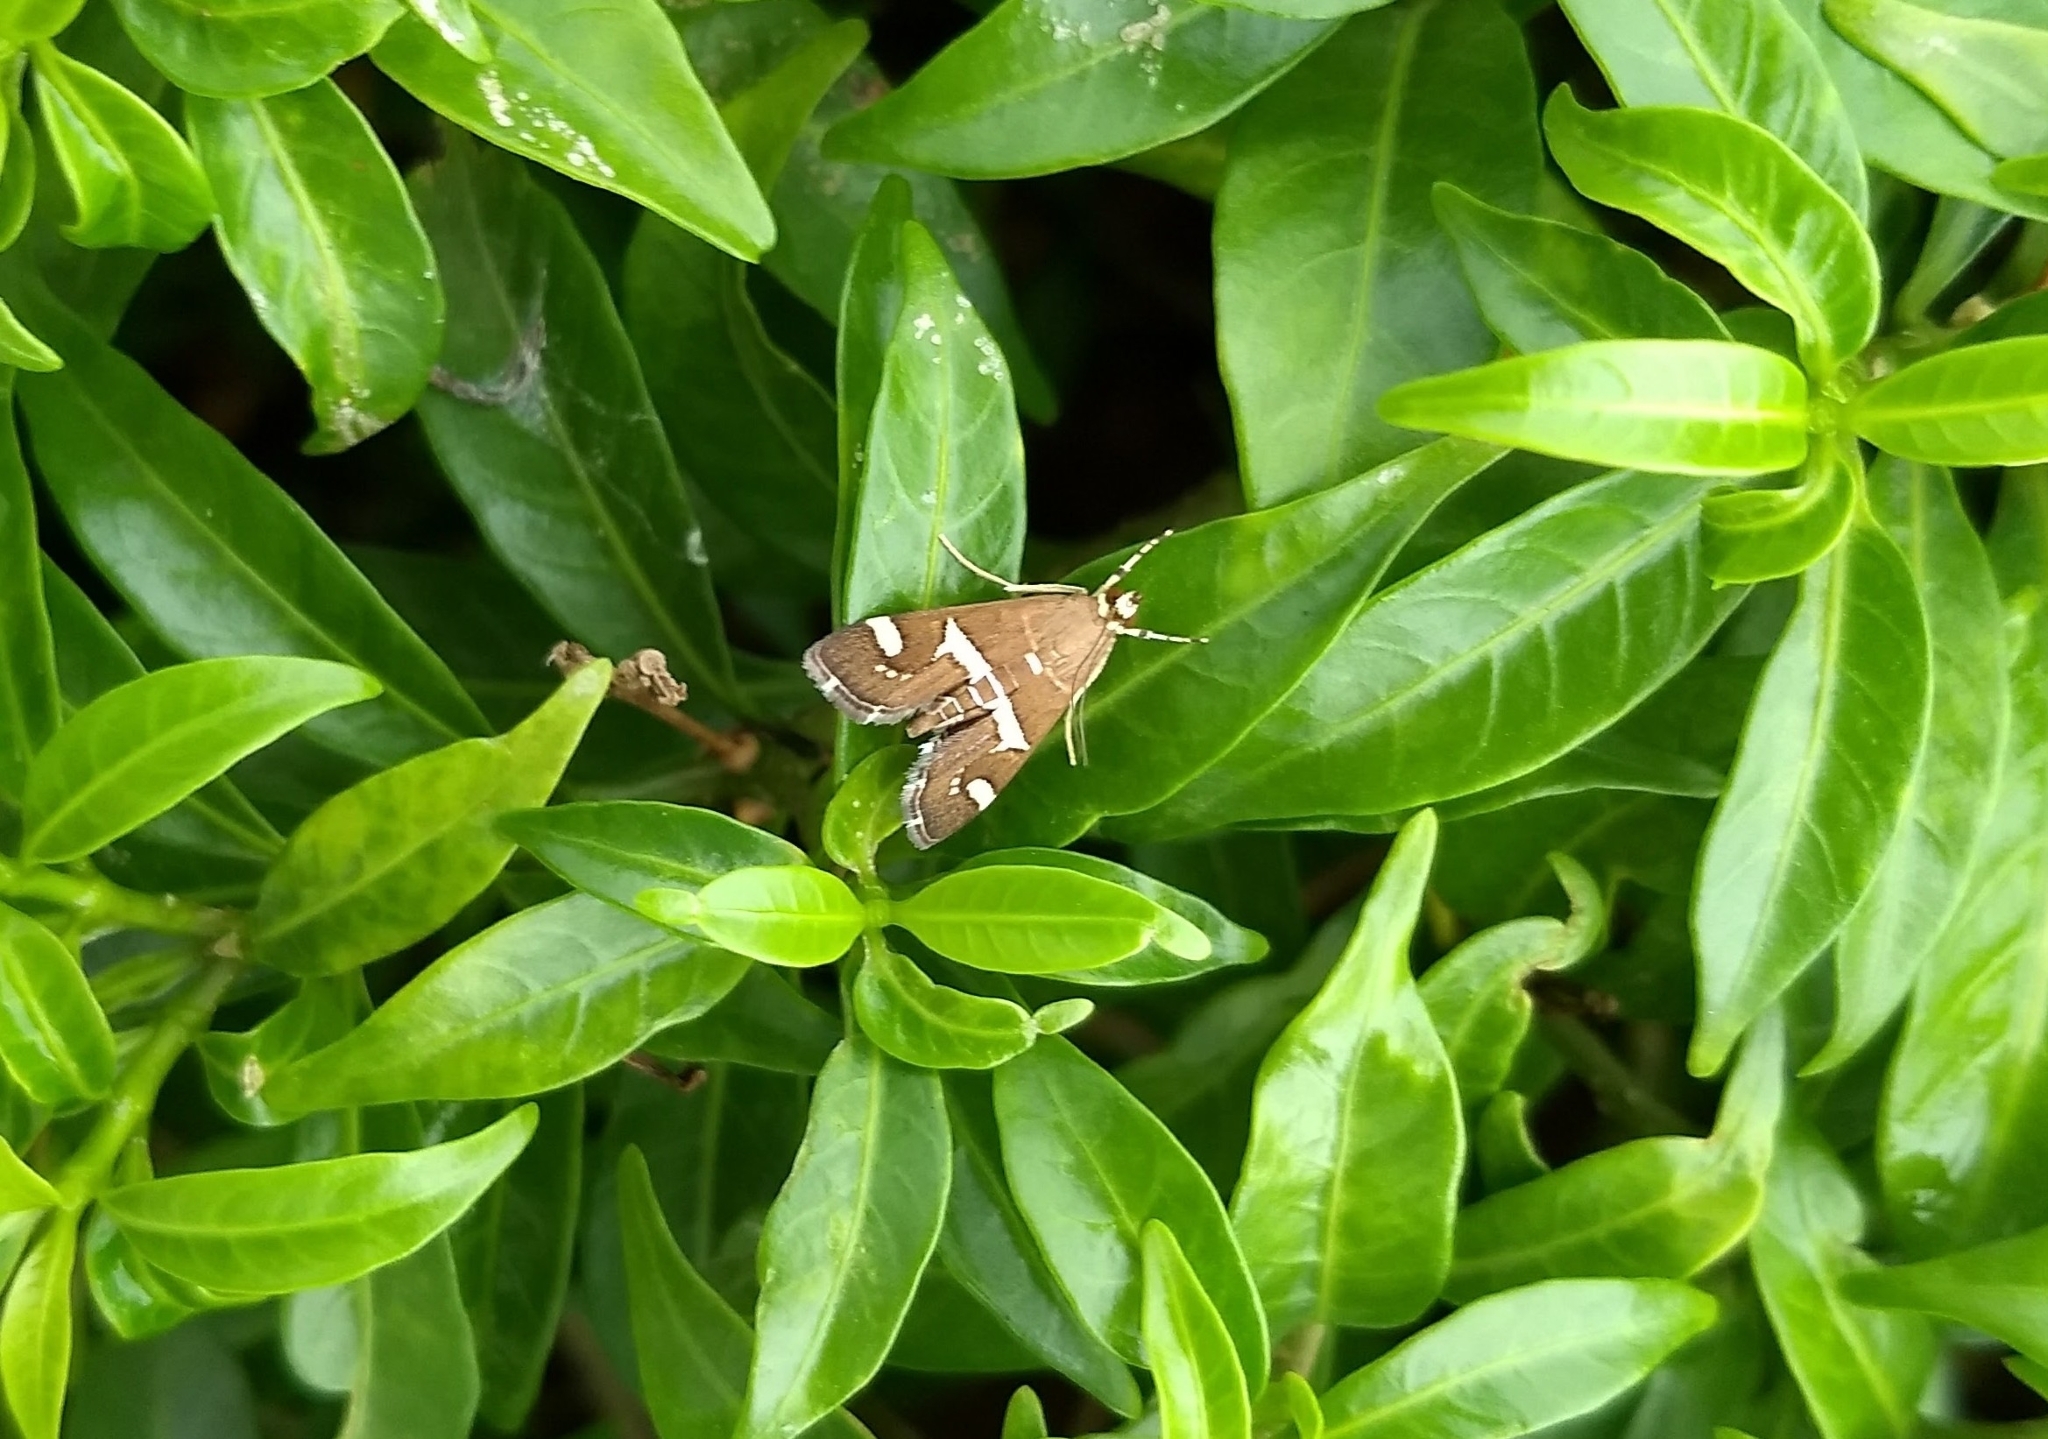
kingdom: Animalia
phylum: Arthropoda
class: Insecta
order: Lepidoptera
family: Crambidae
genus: Spoladea
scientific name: Spoladea recurvalis
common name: Beet webworm moth
